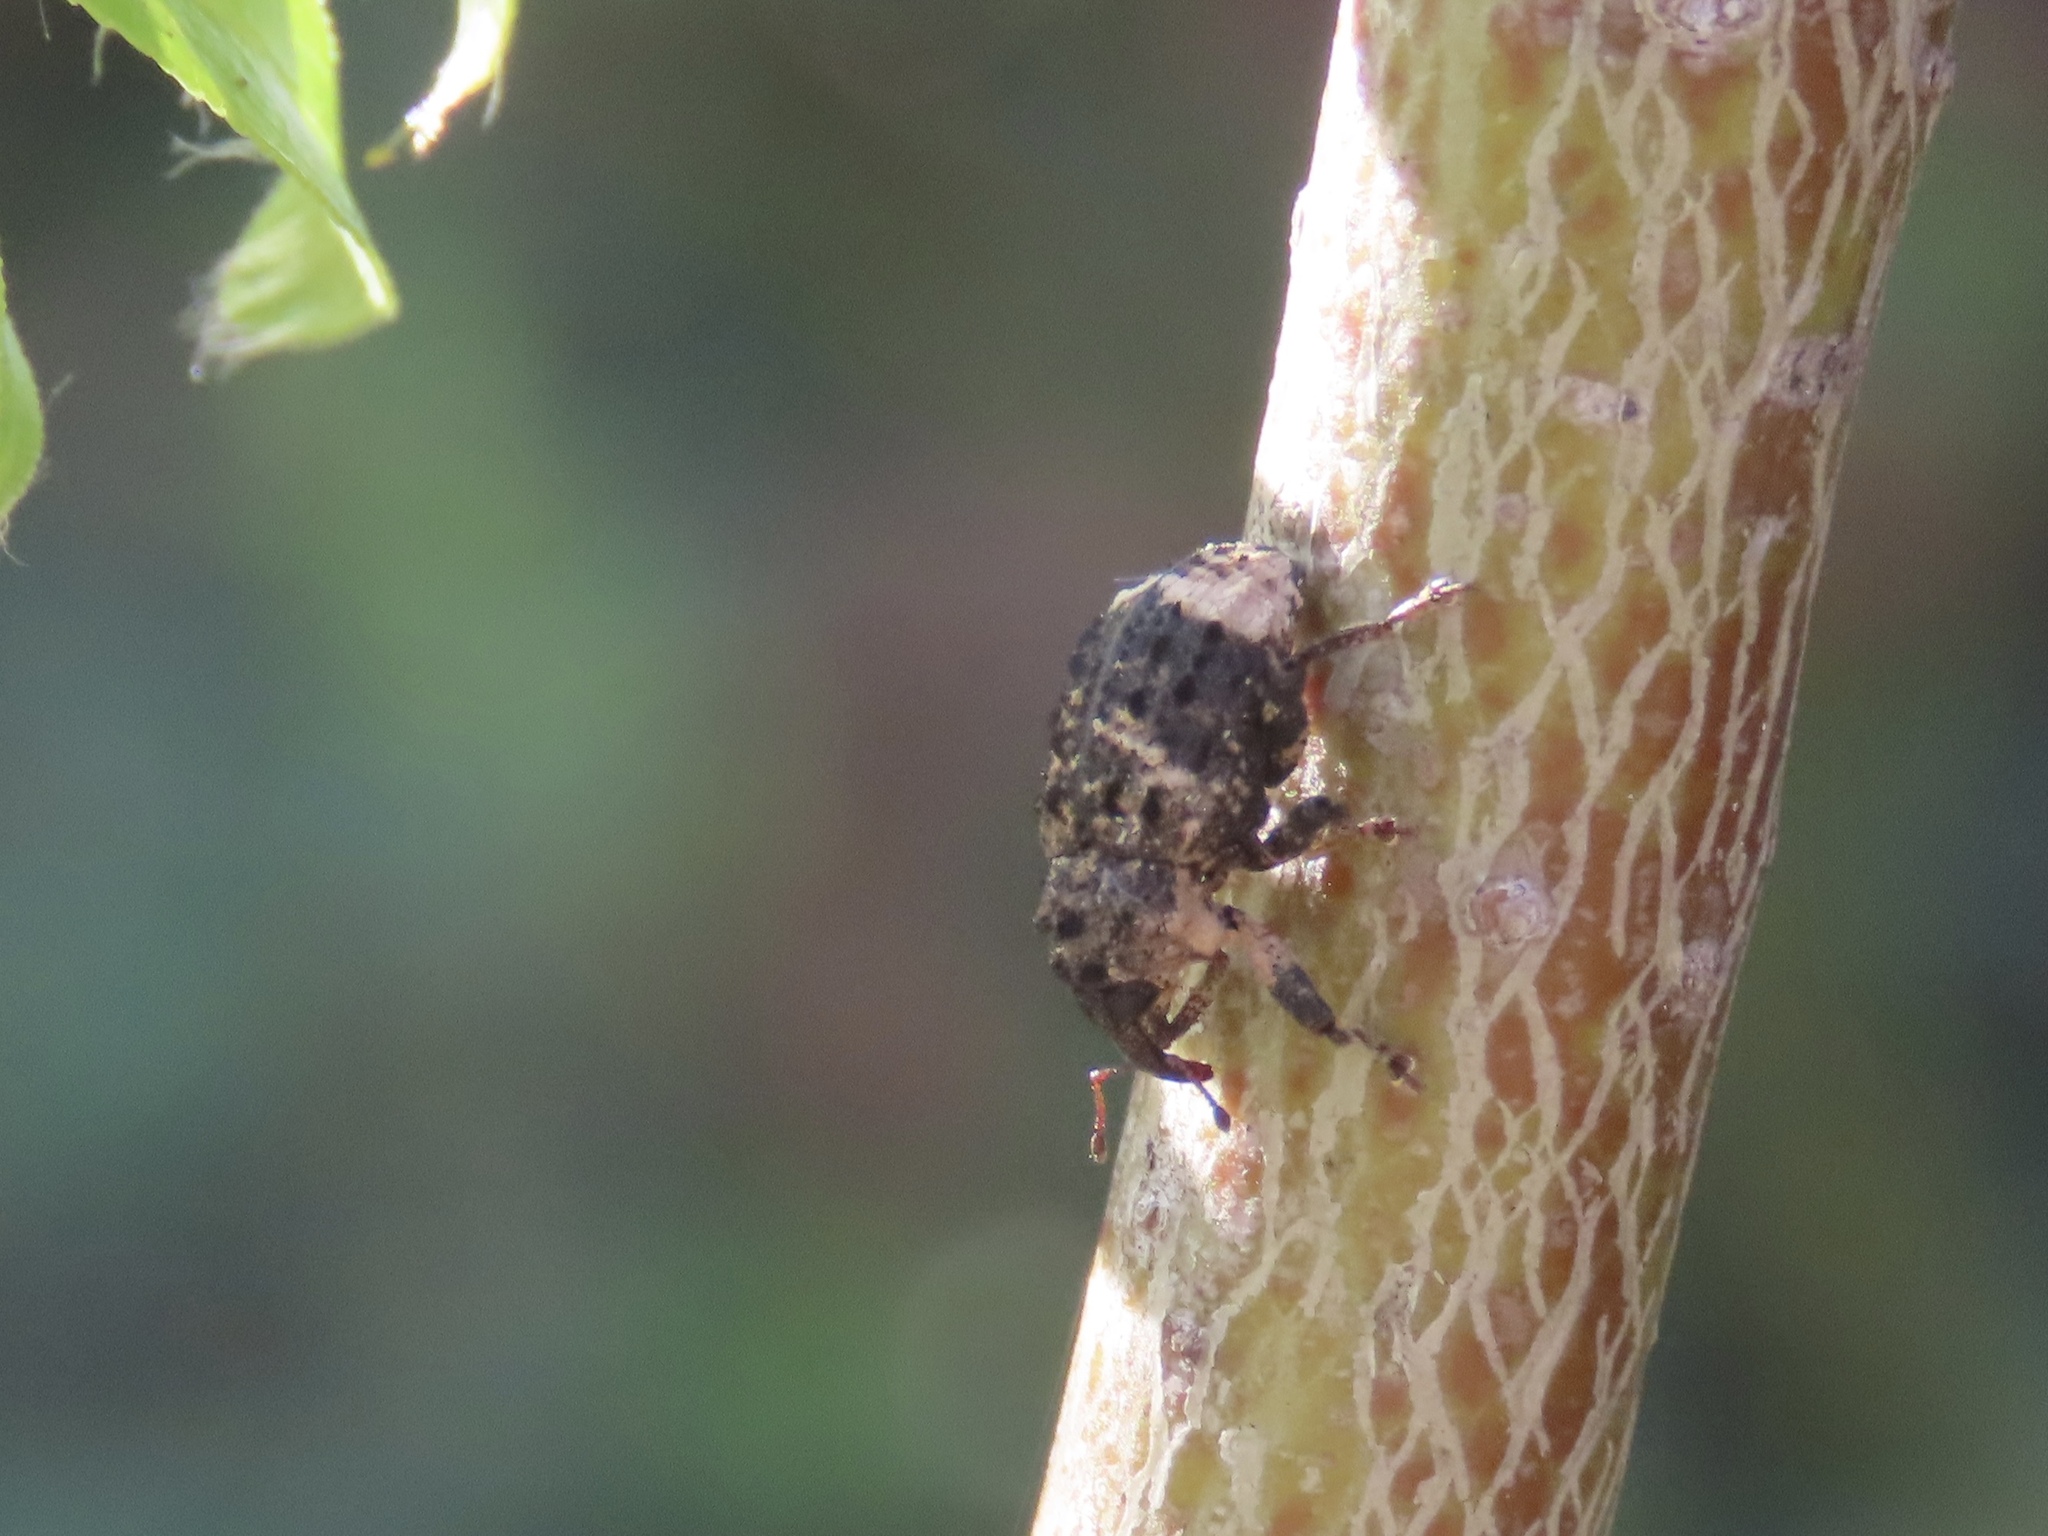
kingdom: Animalia
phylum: Arthropoda
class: Insecta
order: Coleoptera
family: Curculionidae
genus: Cryptorhynchus
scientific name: Cryptorhynchus lapathi
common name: Weevil
